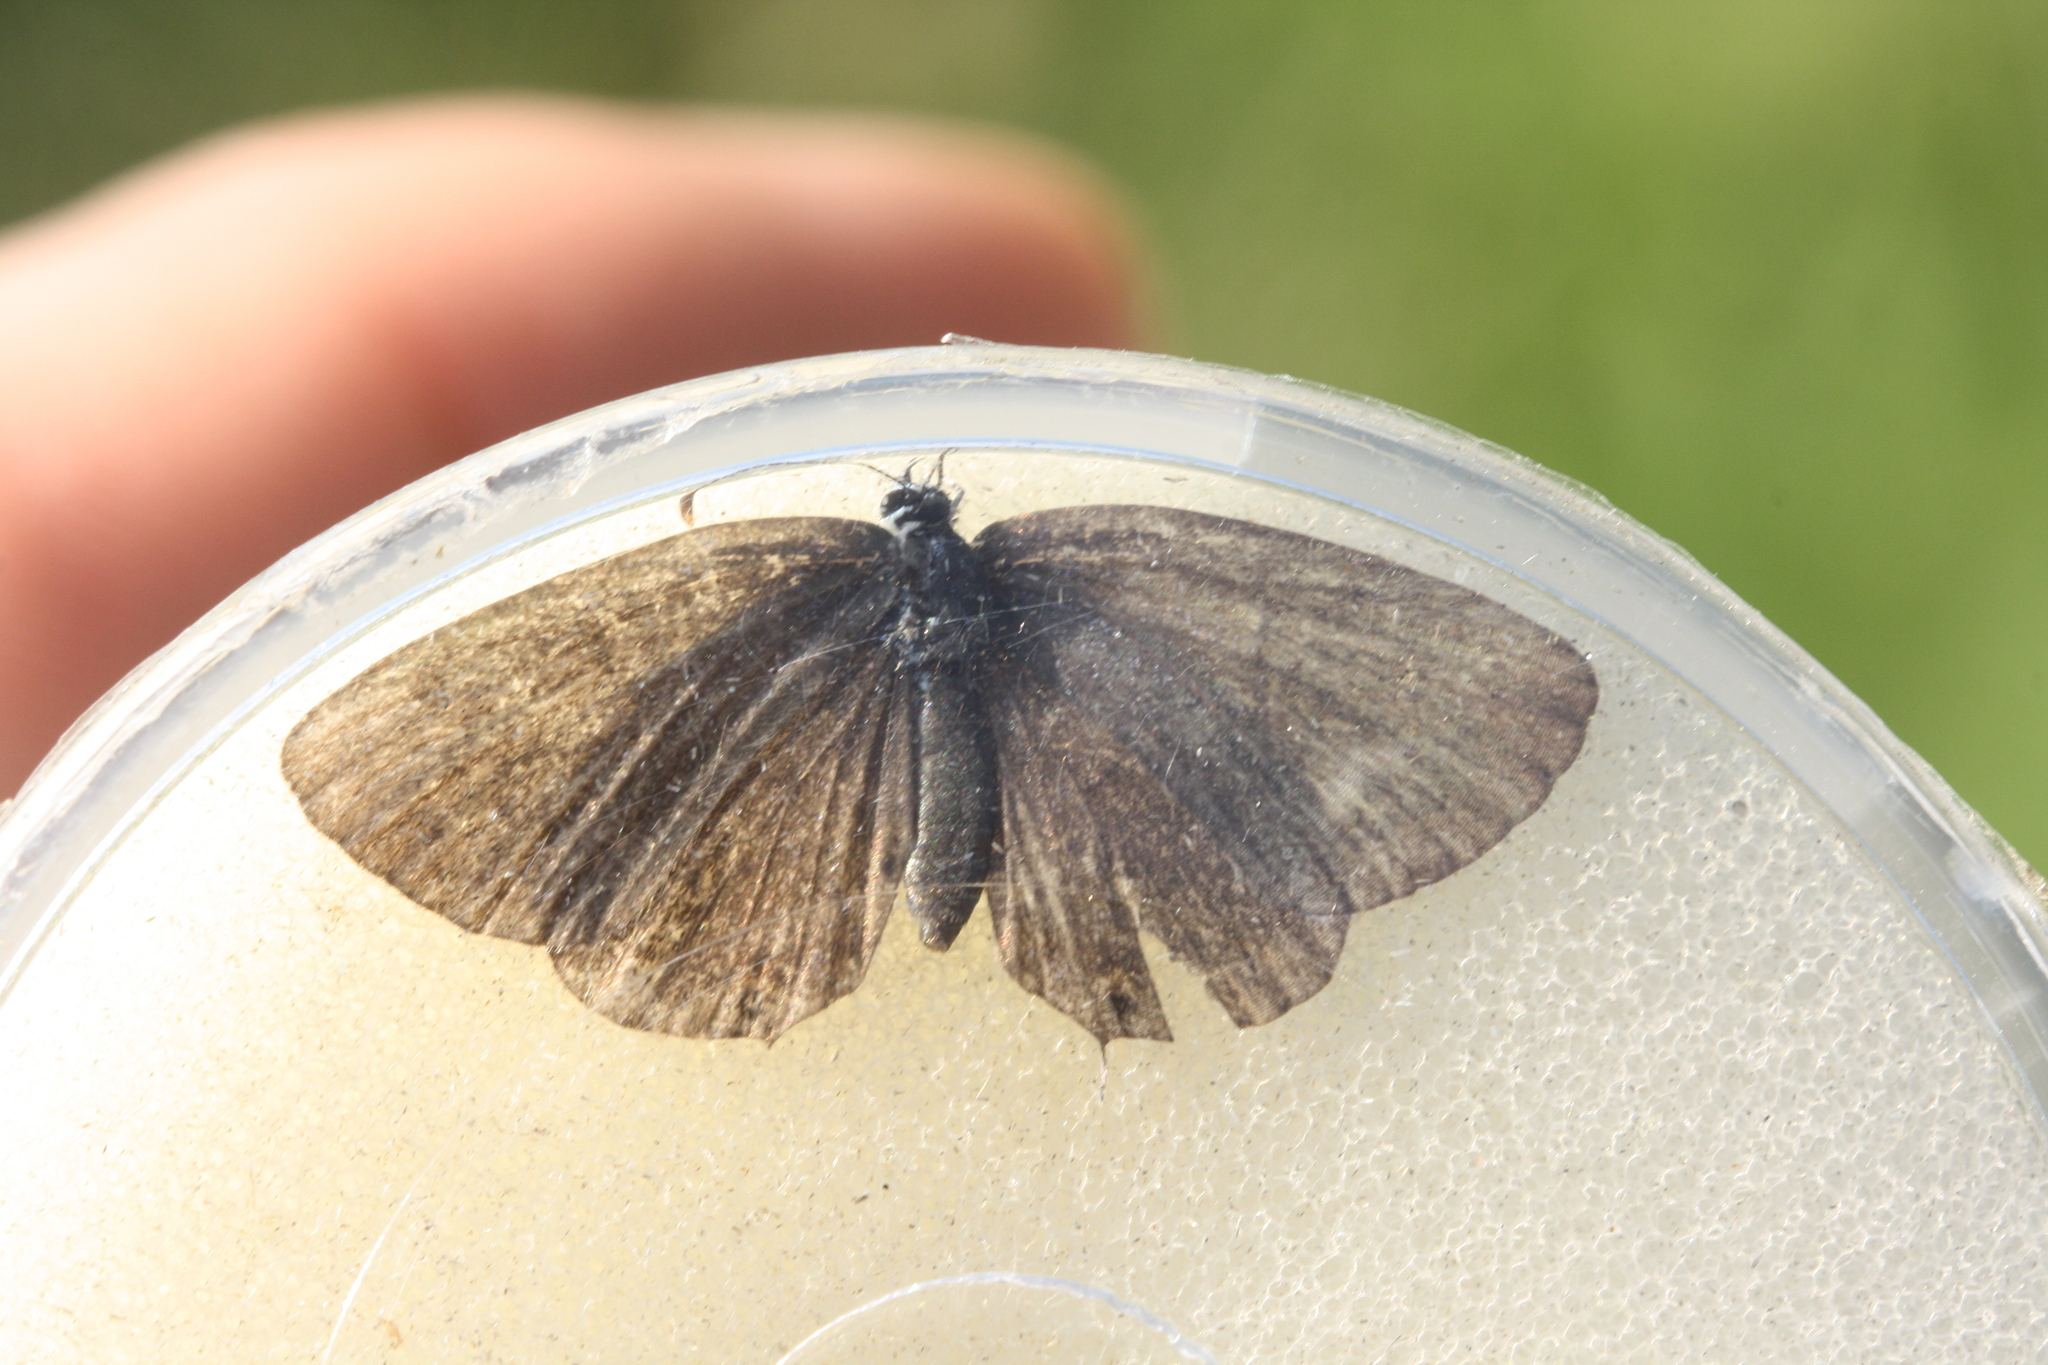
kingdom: Animalia
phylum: Arthropoda
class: Insecta
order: Lepidoptera
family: Lycaenidae
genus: Elkalyce
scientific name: Elkalyce decolorata
